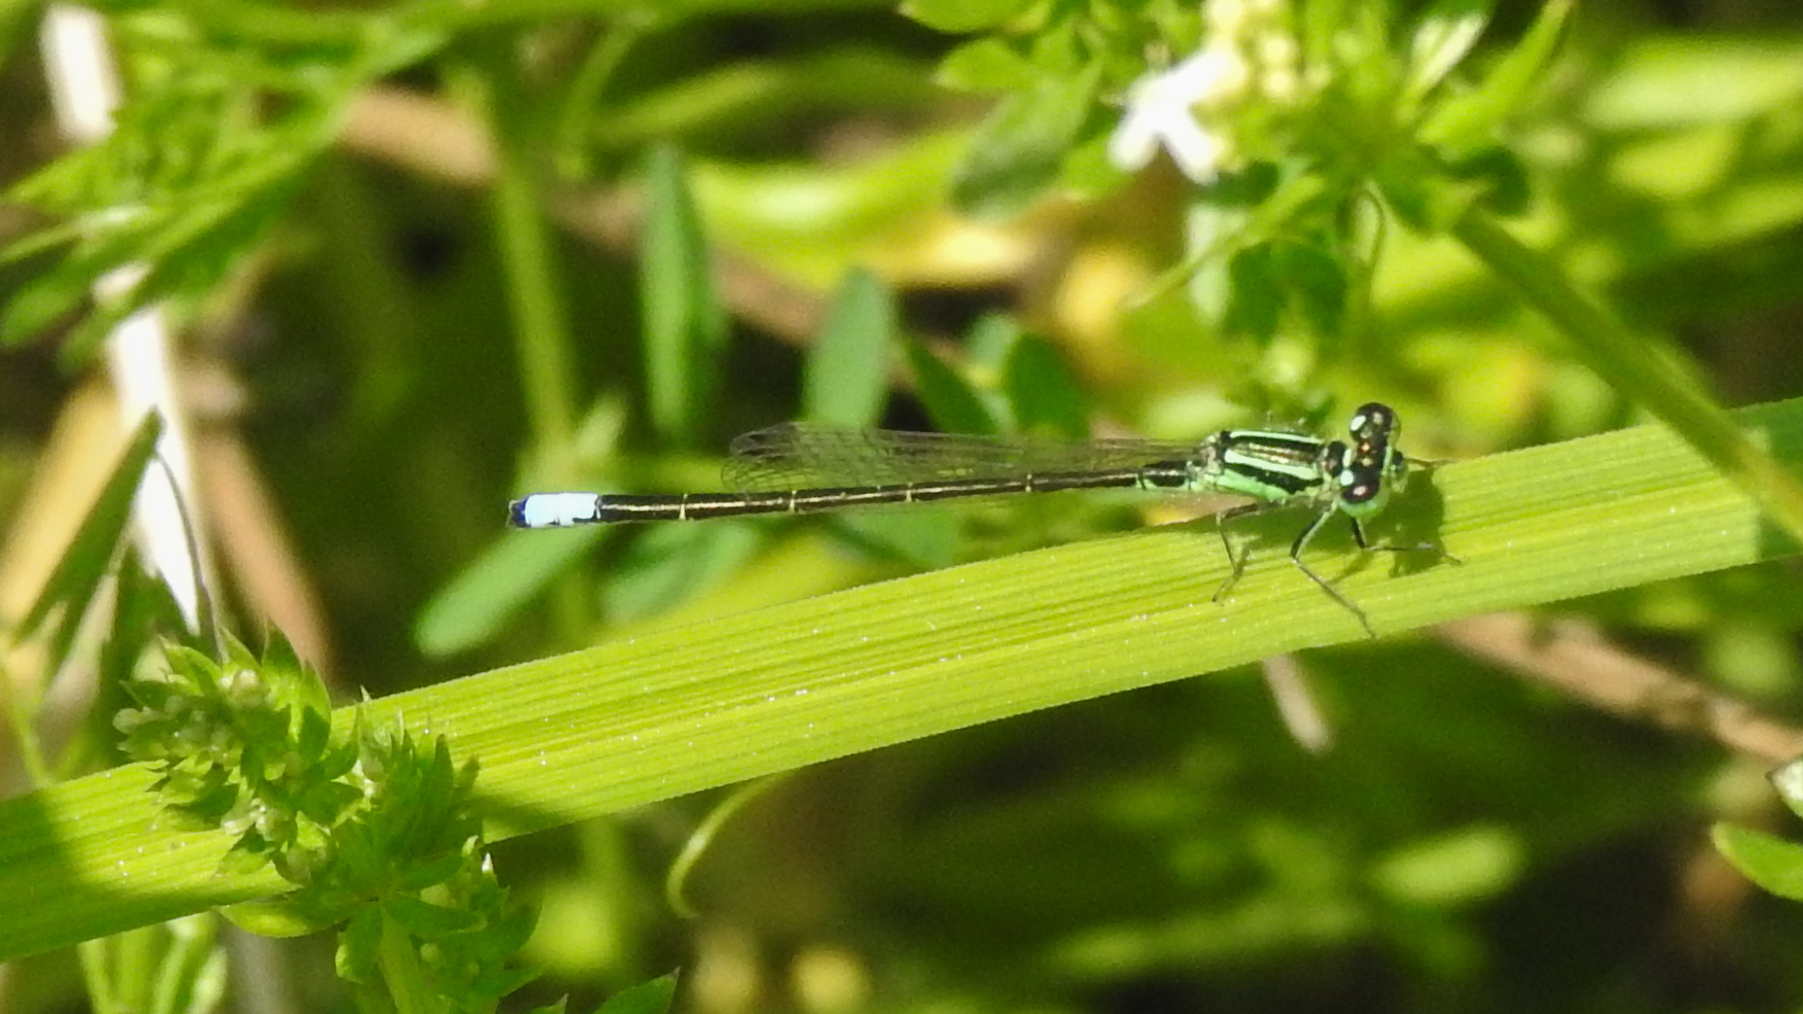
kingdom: Animalia
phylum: Arthropoda
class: Insecta
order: Odonata
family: Coenagrionidae
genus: Ischnura
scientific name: Ischnura verticalis
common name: Eastern forktail
